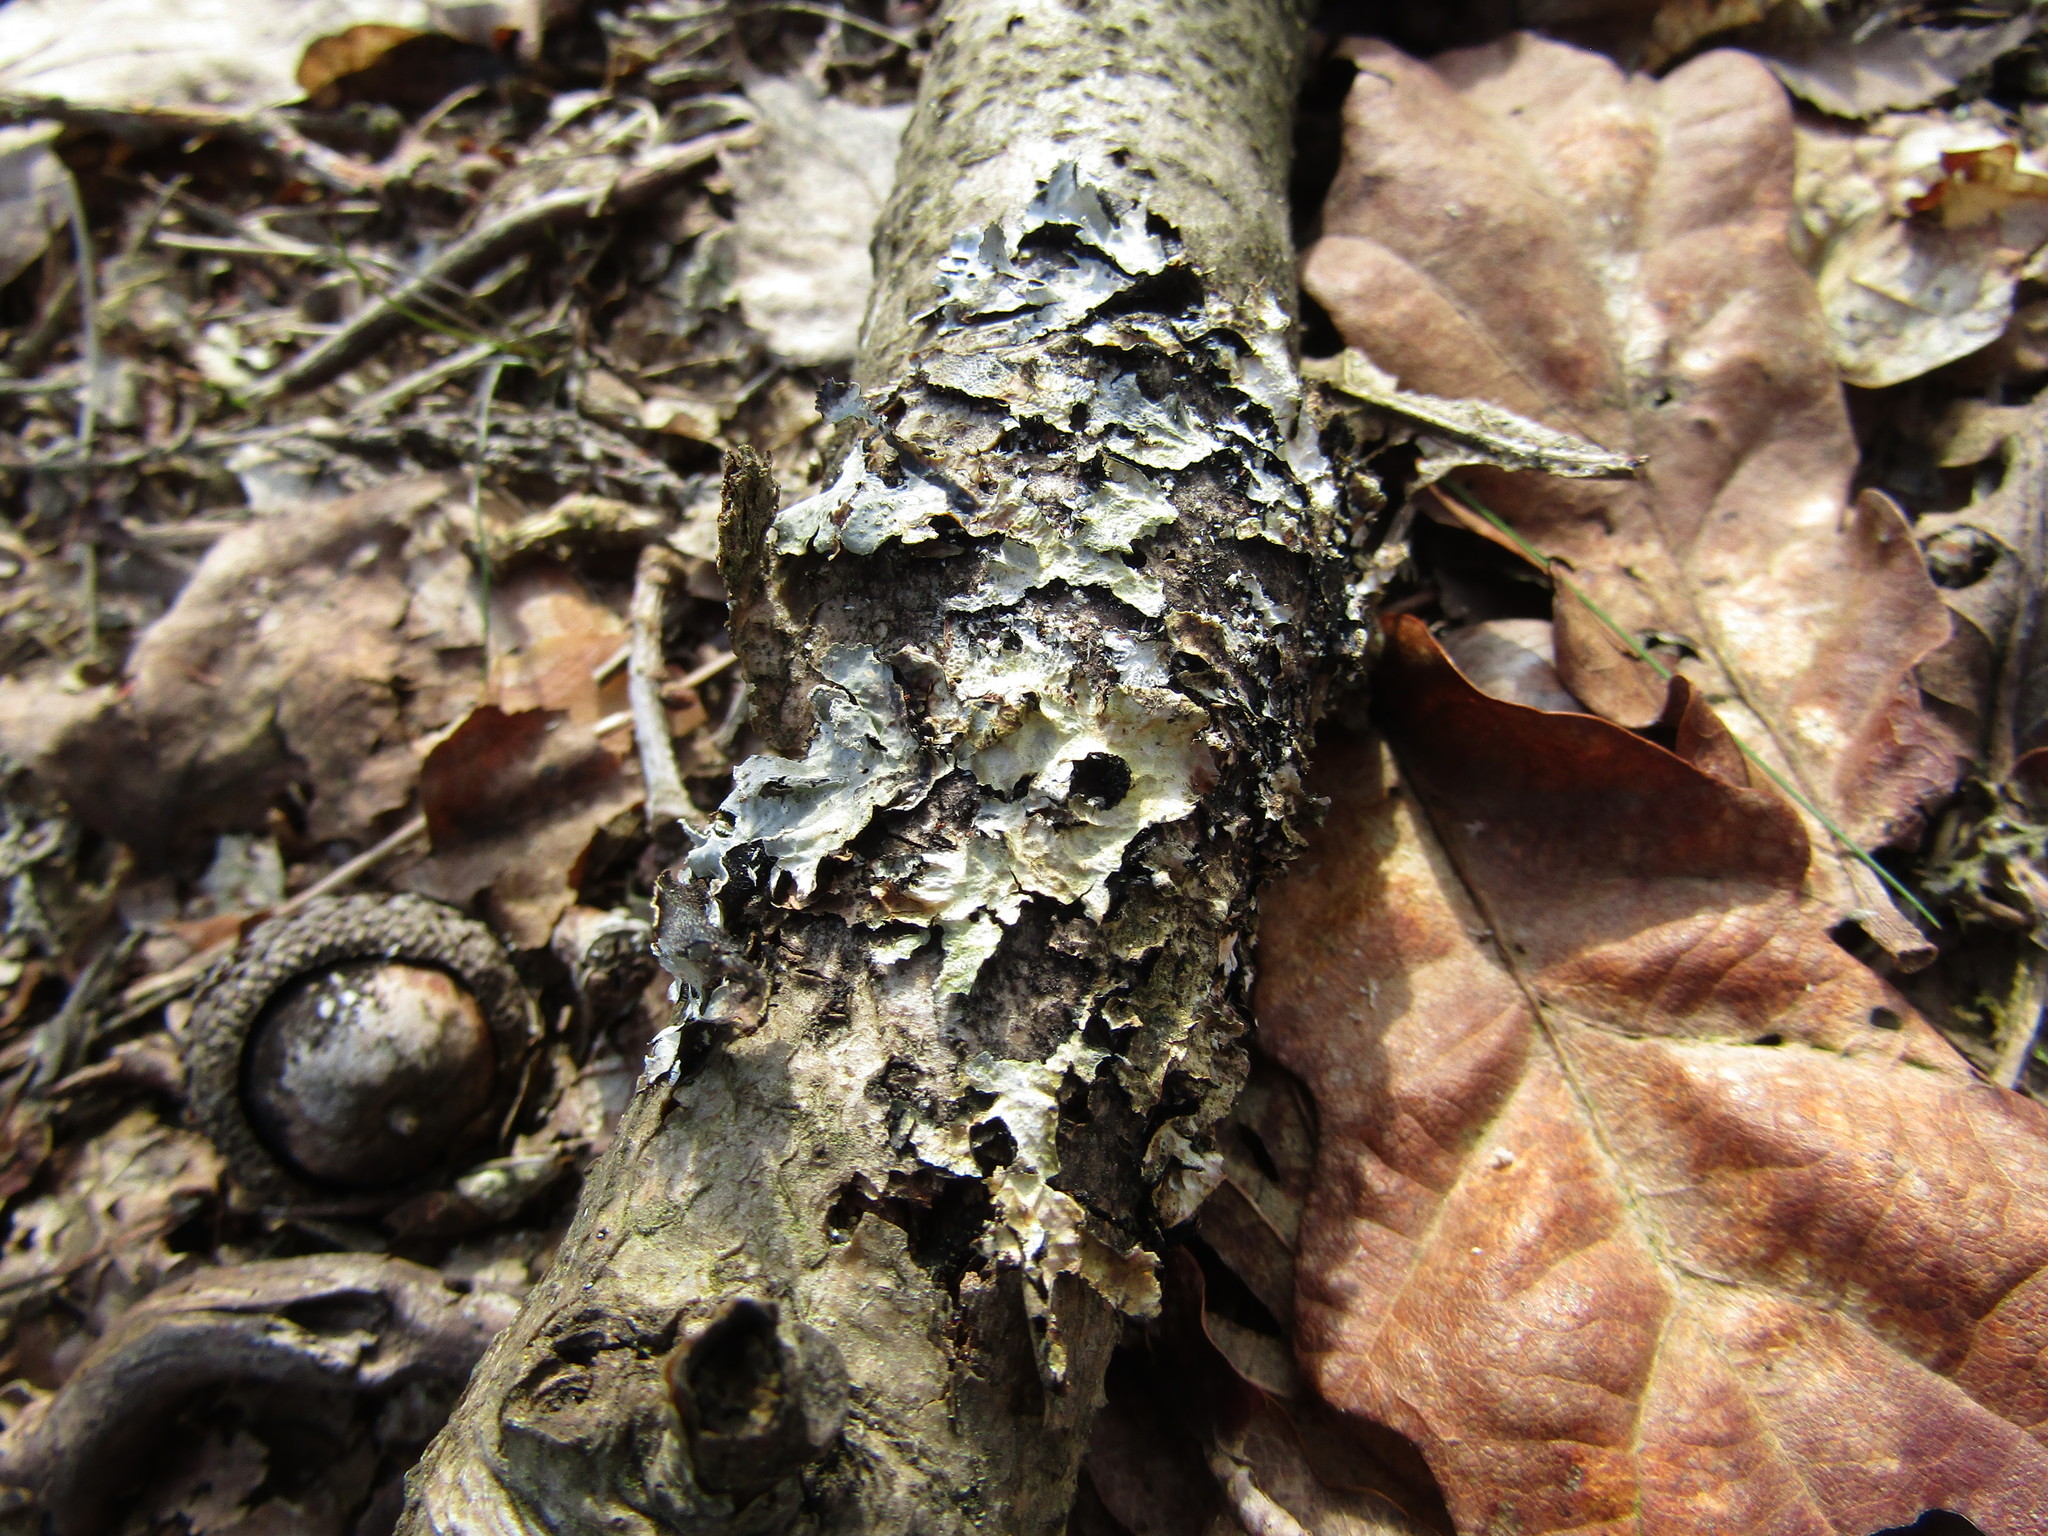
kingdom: Fungi
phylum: Ascomycota
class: Lecanoromycetes
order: Lecanorales
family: Parmeliaceae
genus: Parmelia
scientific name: Parmelia sulcata
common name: Netted shield lichen
